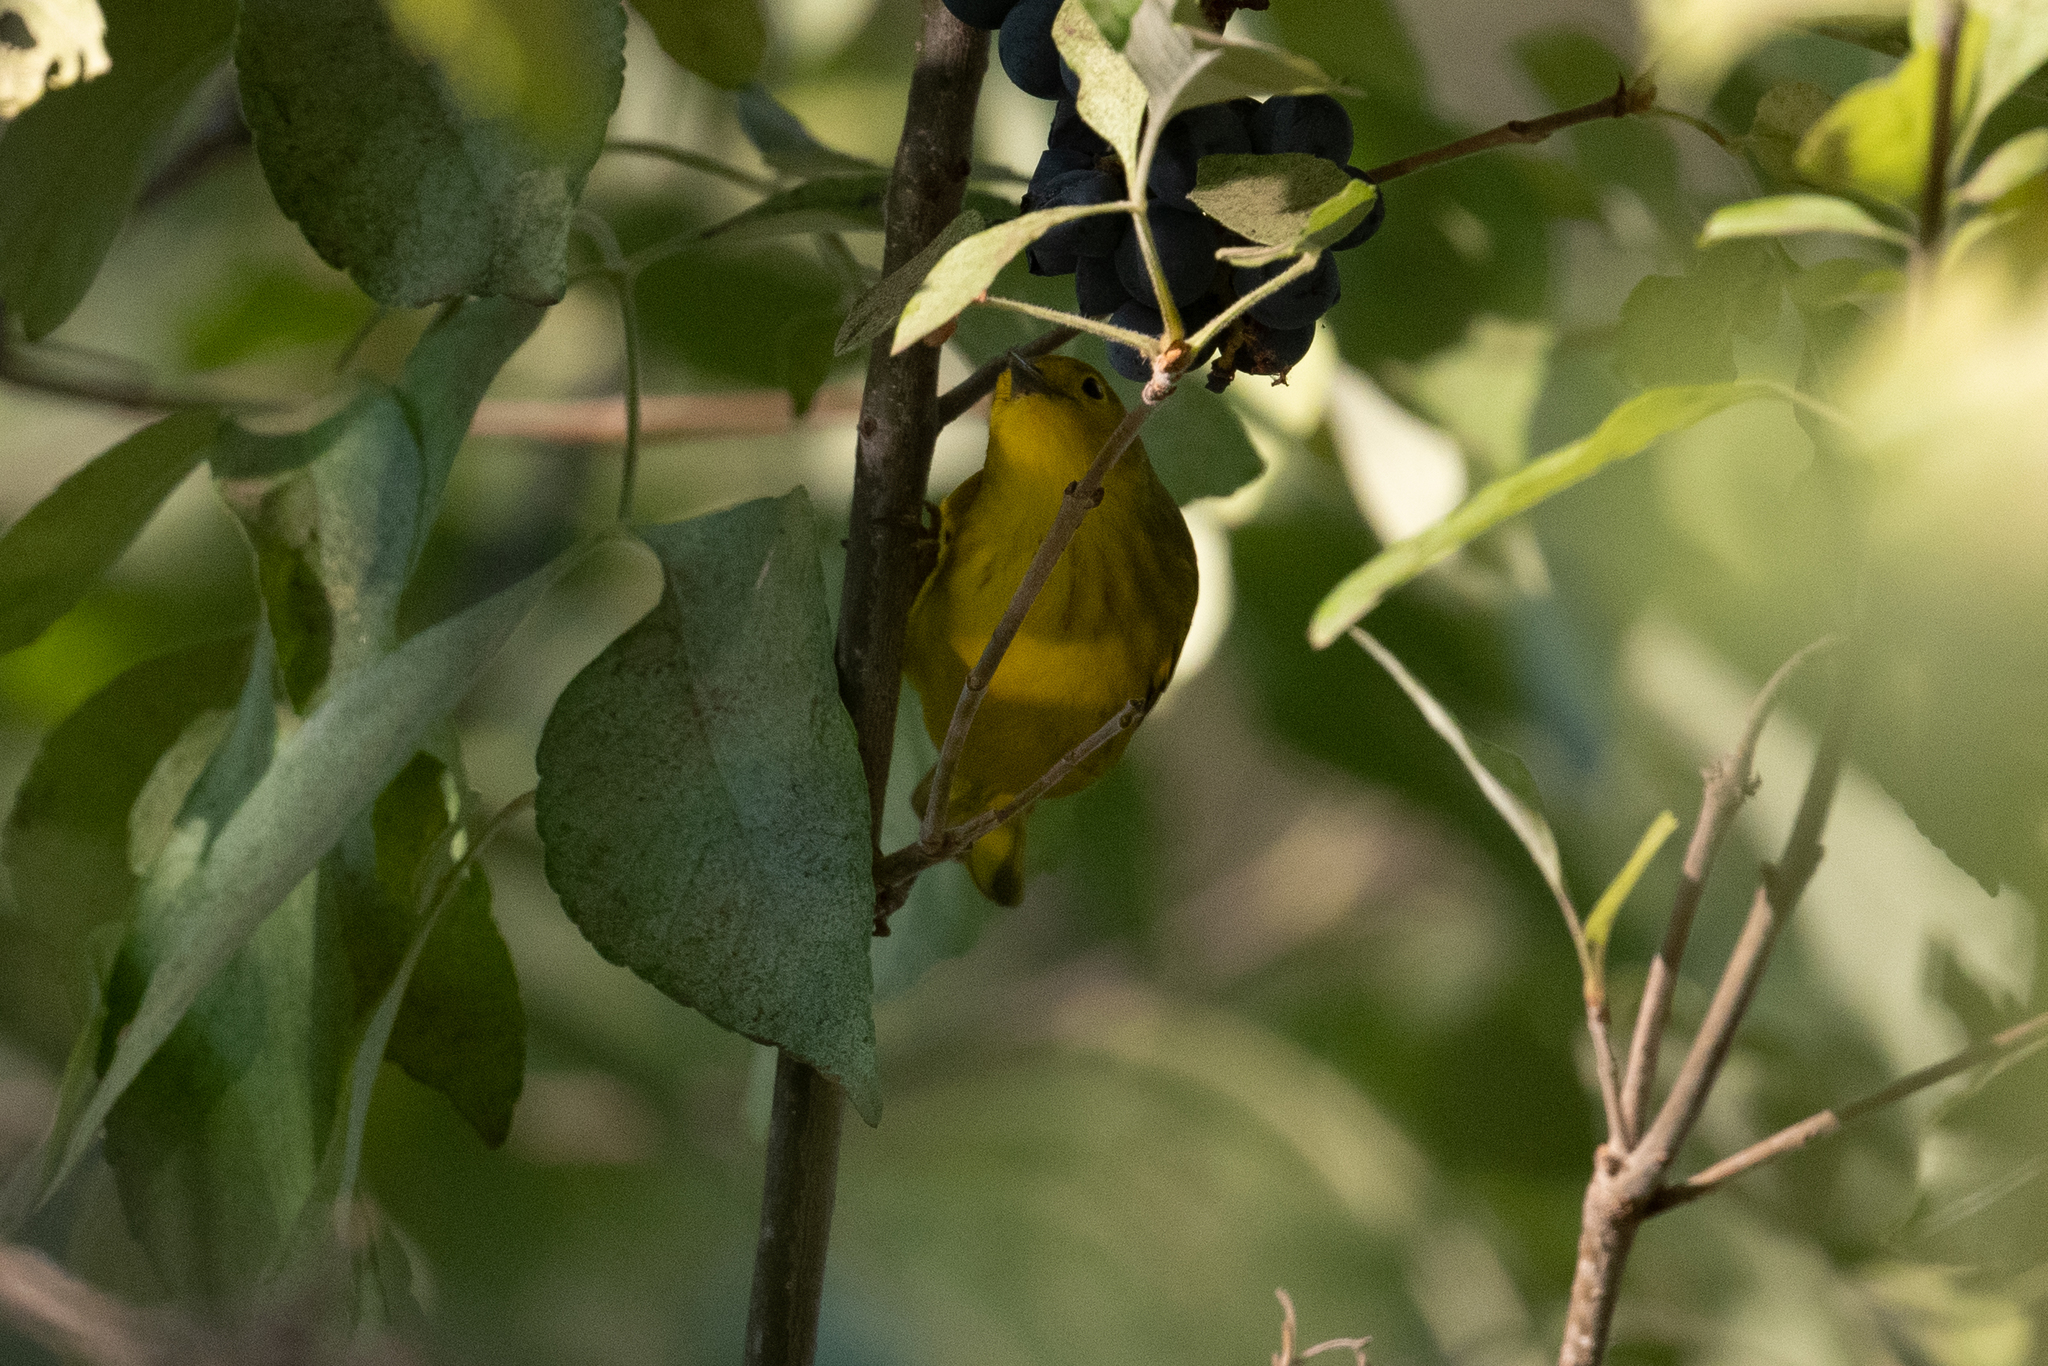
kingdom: Animalia
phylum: Chordata
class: Aves
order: Passeriformes
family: Parulidae
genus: Setophaga
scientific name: Setophaga petechia
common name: Yellow warbler
